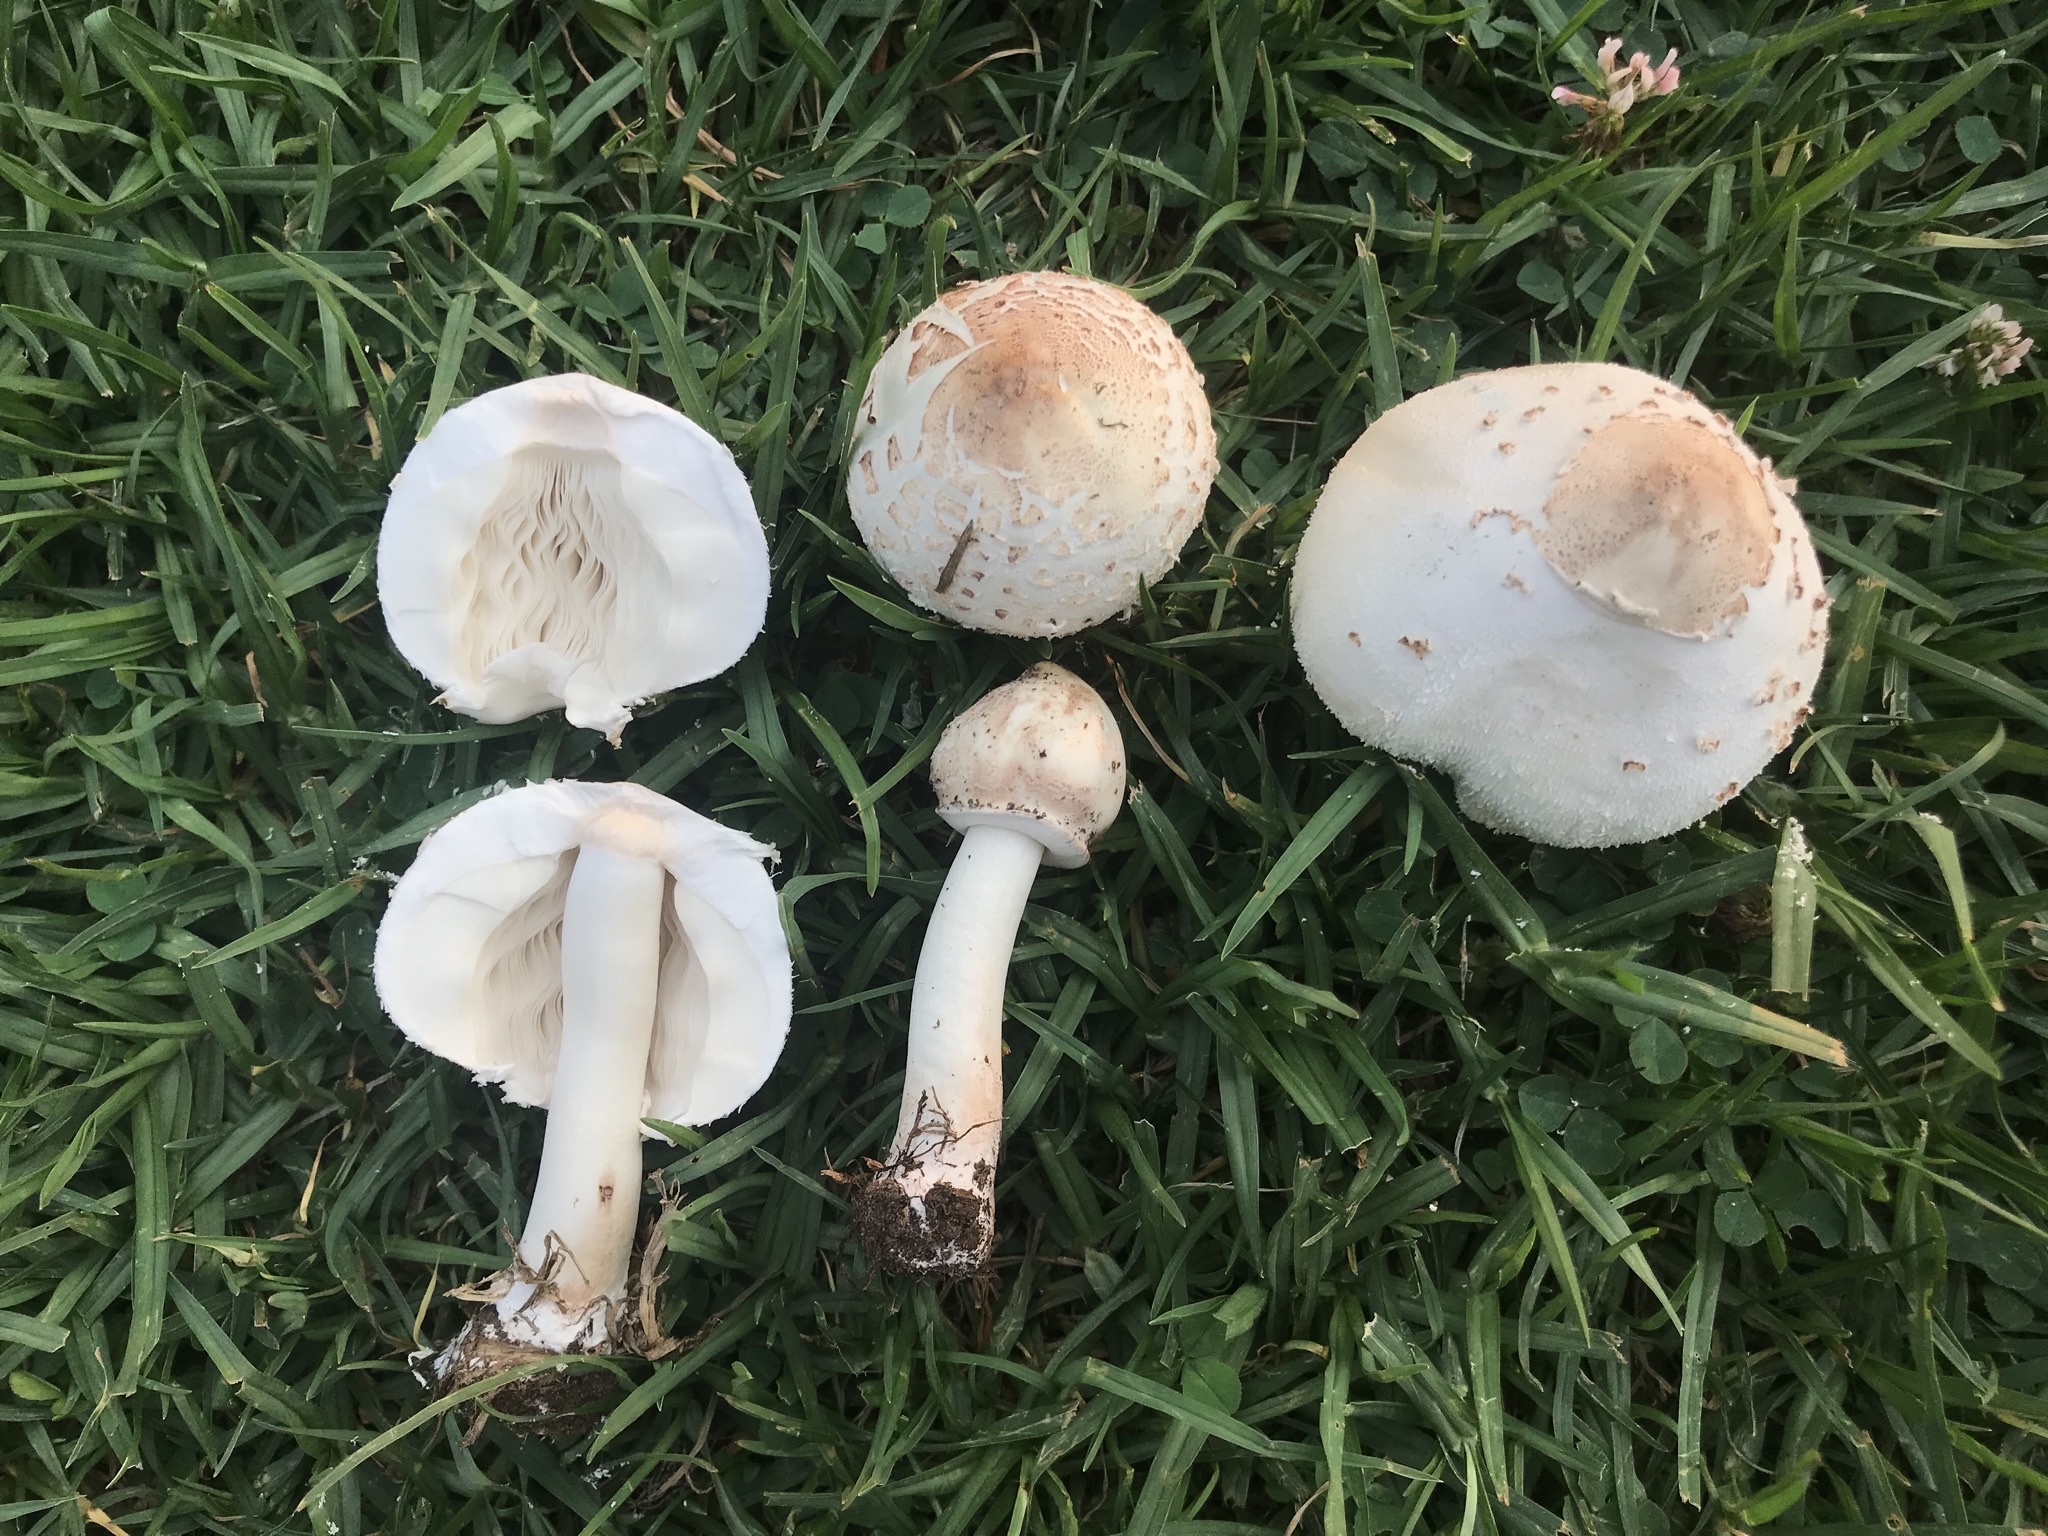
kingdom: Fungi
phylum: Basidiomycota
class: Agaricomycetes
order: Agaricales
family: Agaricaceae
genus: Chlorophyllum
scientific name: Chlorophyllum molybdites
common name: False parasol
